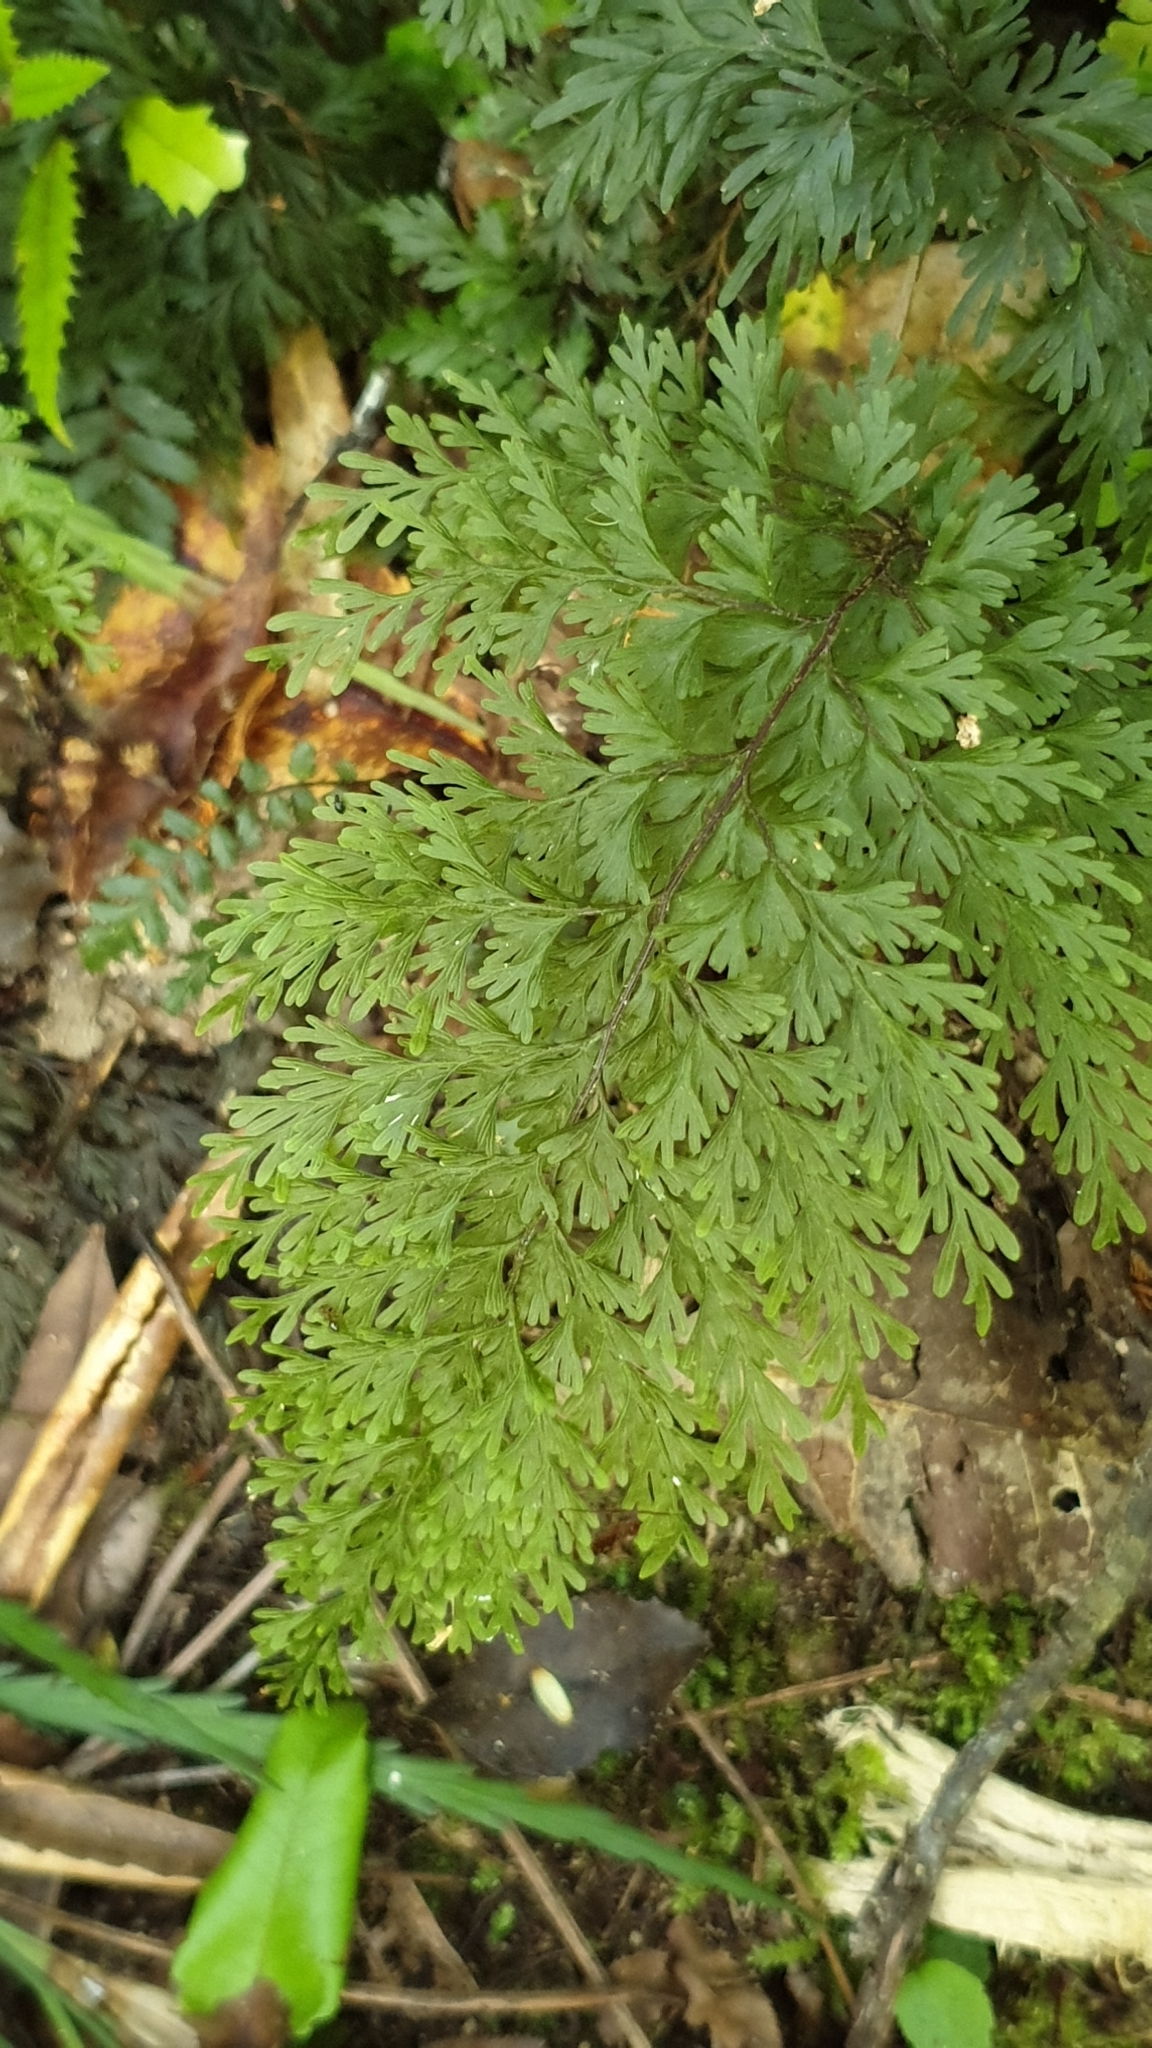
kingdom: Plantae
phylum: Tracheophyta
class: Polypodiopsida
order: Hymenophyllales
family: Hymenophyllaceae
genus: Hymenophyllum
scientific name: Hymenophyllum demissum
